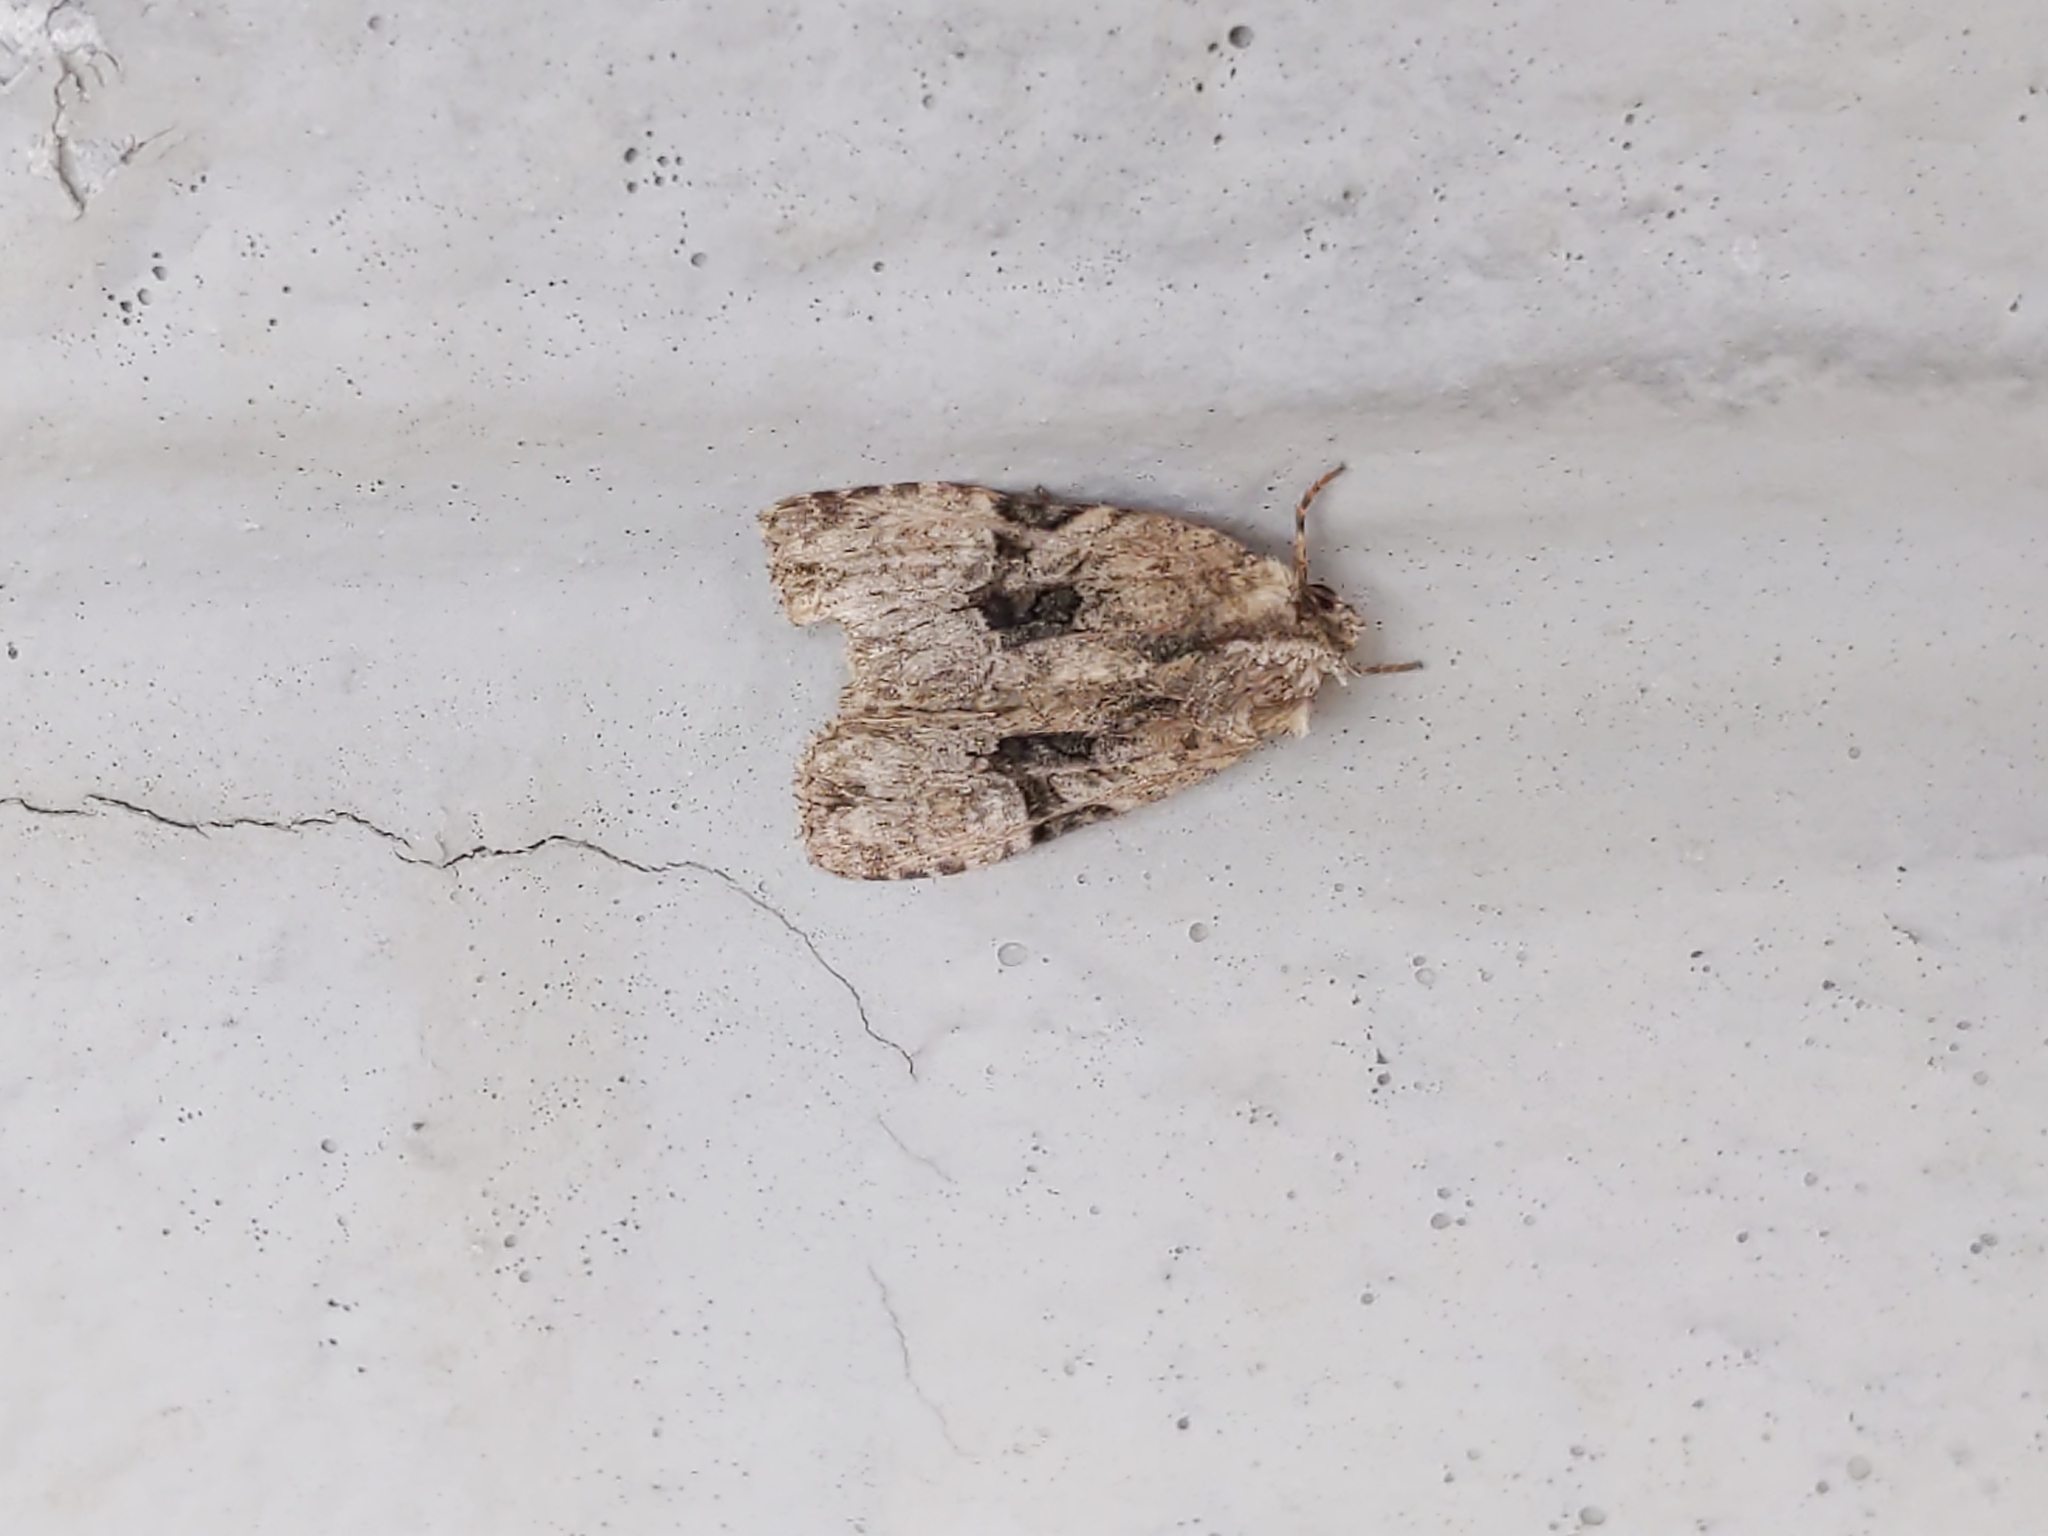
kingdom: Animalia
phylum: Arthropoda
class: Insecta
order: Lepidoptera
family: Noctuidae
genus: Oligia
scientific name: Oligia modica
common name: Black-banded brocade
